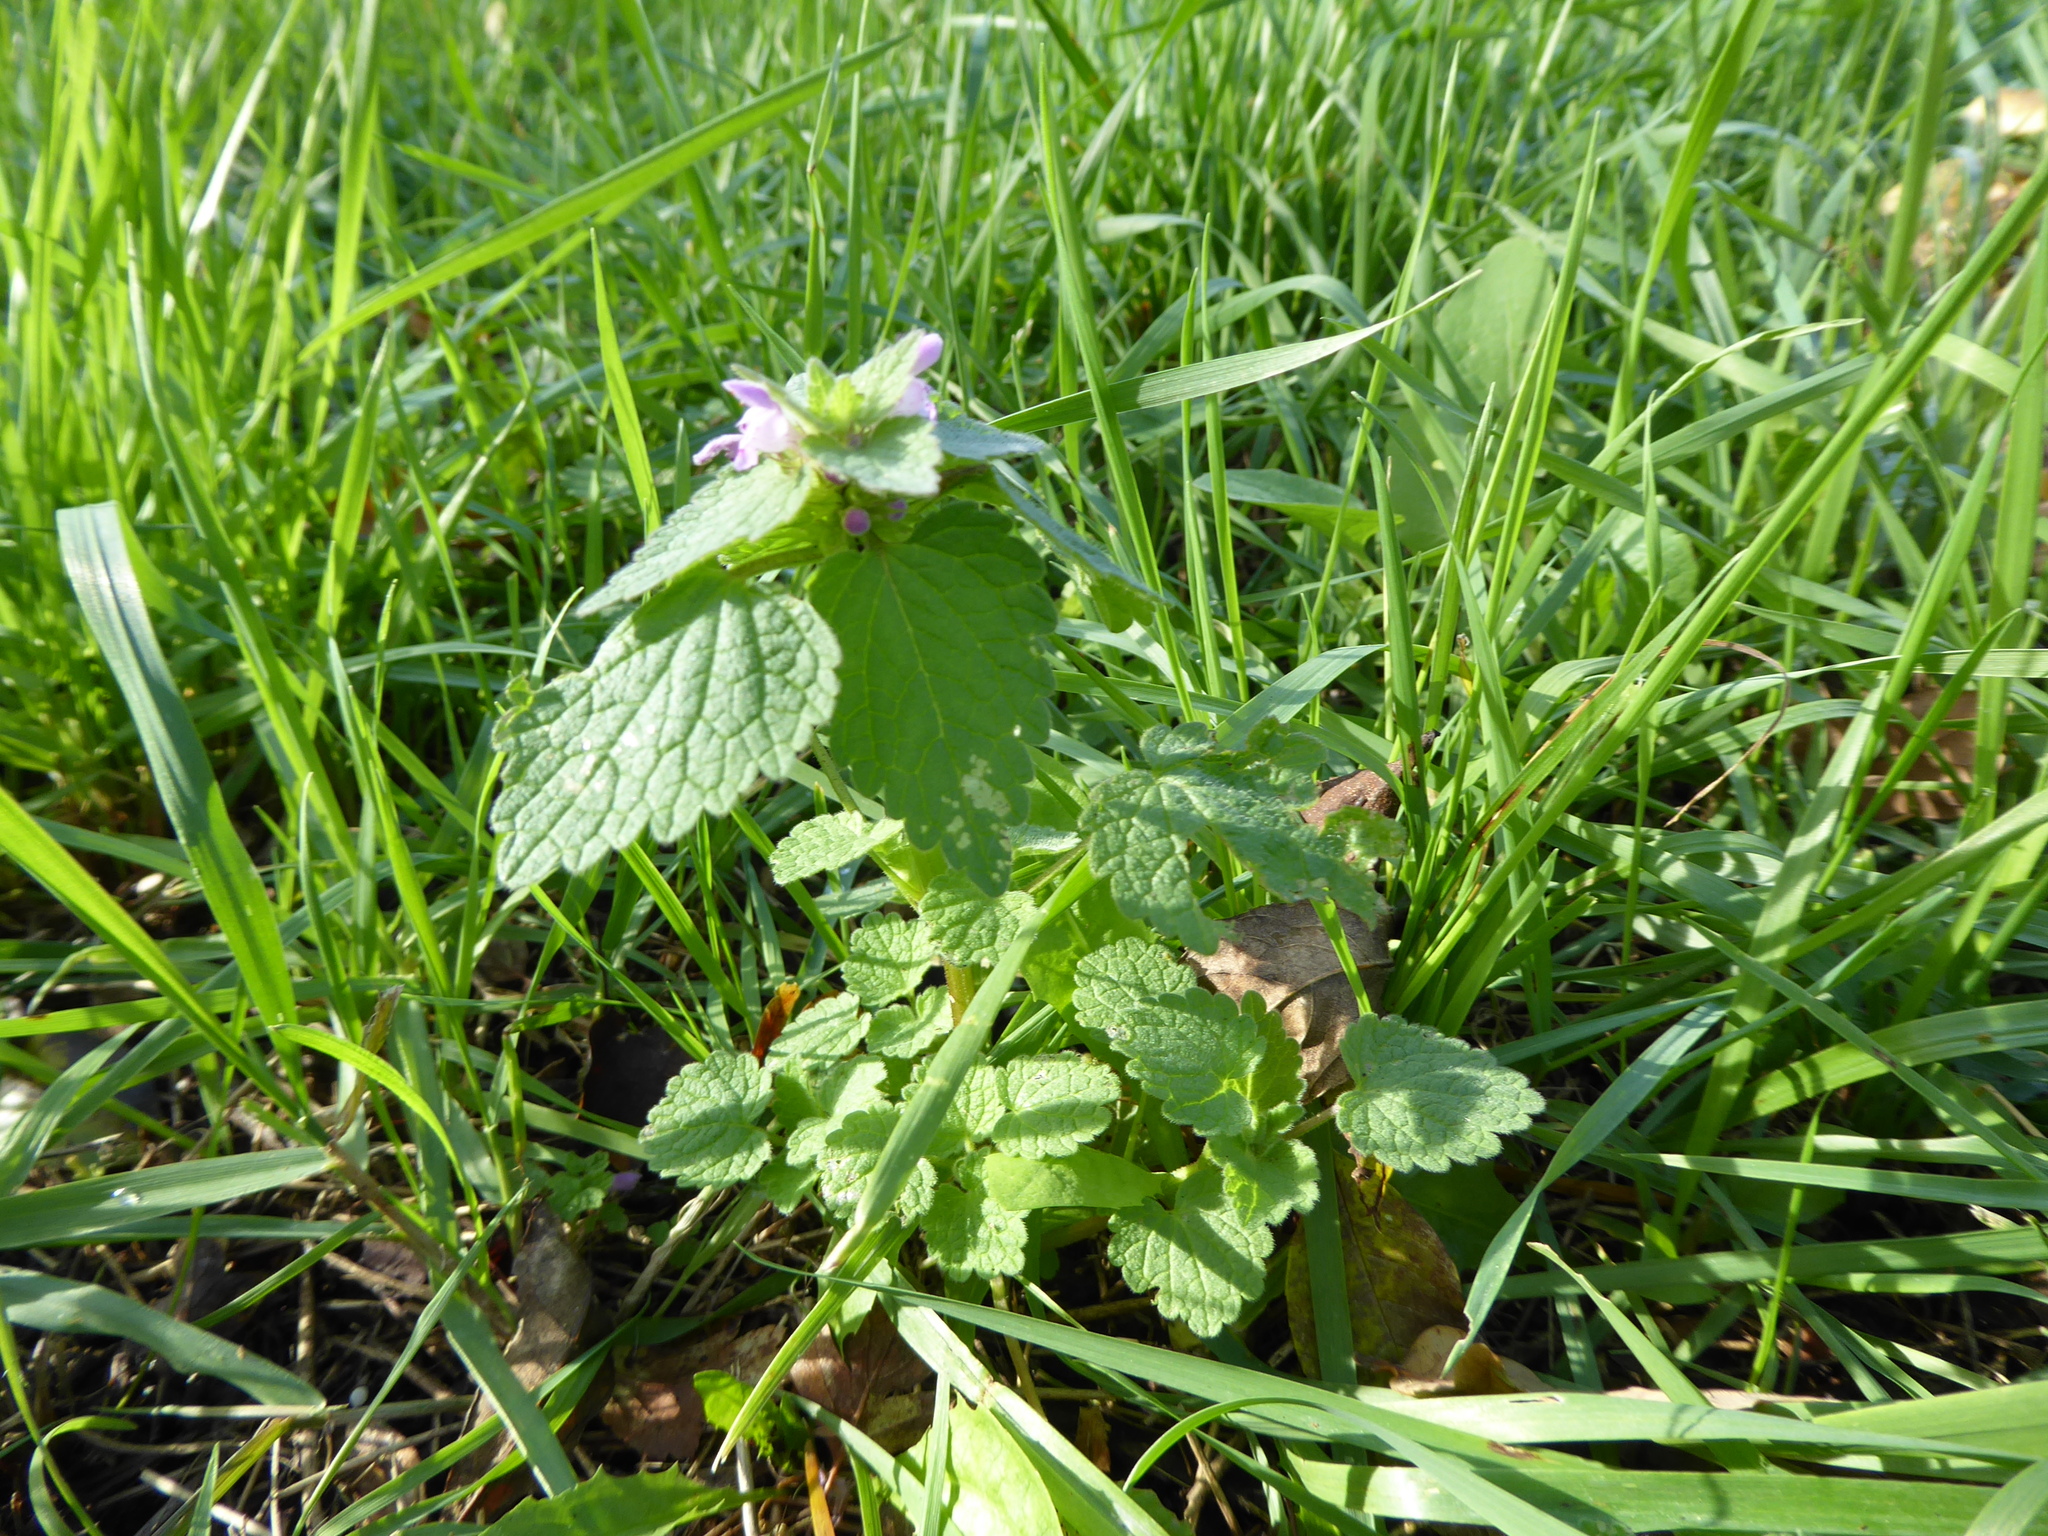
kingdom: Plantae
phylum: Tracheophyta
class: Magnoliopsida
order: Lamiales
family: Lamiaceae
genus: Lamium
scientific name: Lamium purpureum
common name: Red dead-nettle
